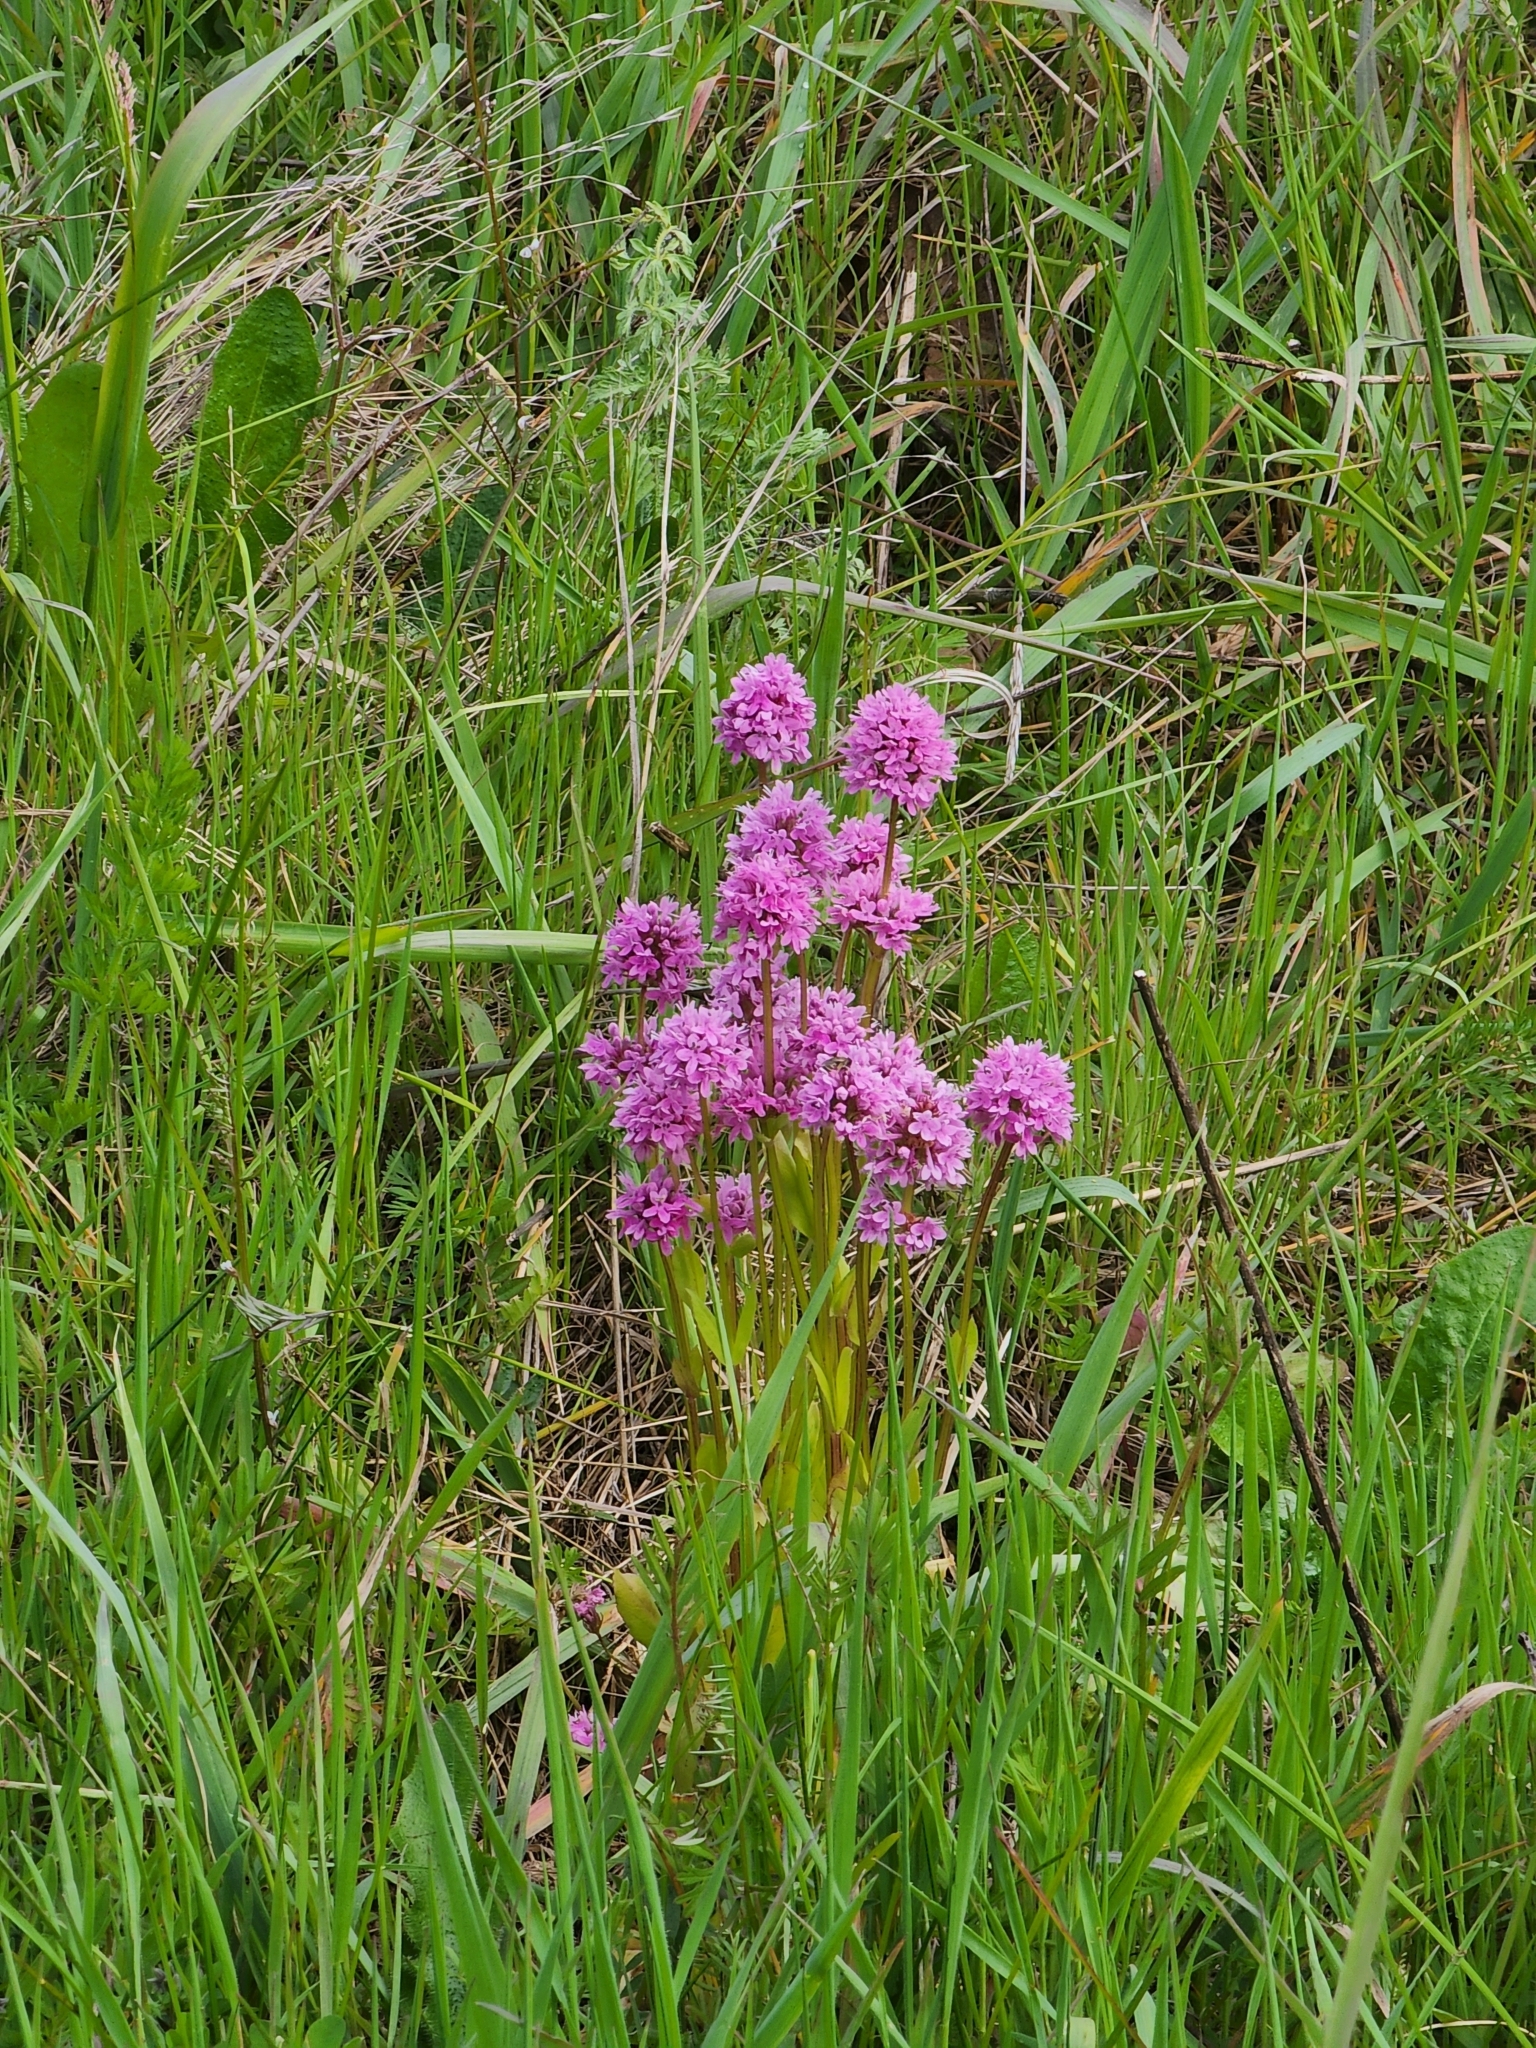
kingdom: Plantae
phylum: Tracheophyta
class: Magnoliopsida
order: Dipsacales
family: Caprifoliaceae
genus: Plectritis
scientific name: Plectritis congesta
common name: Pink plectritis
